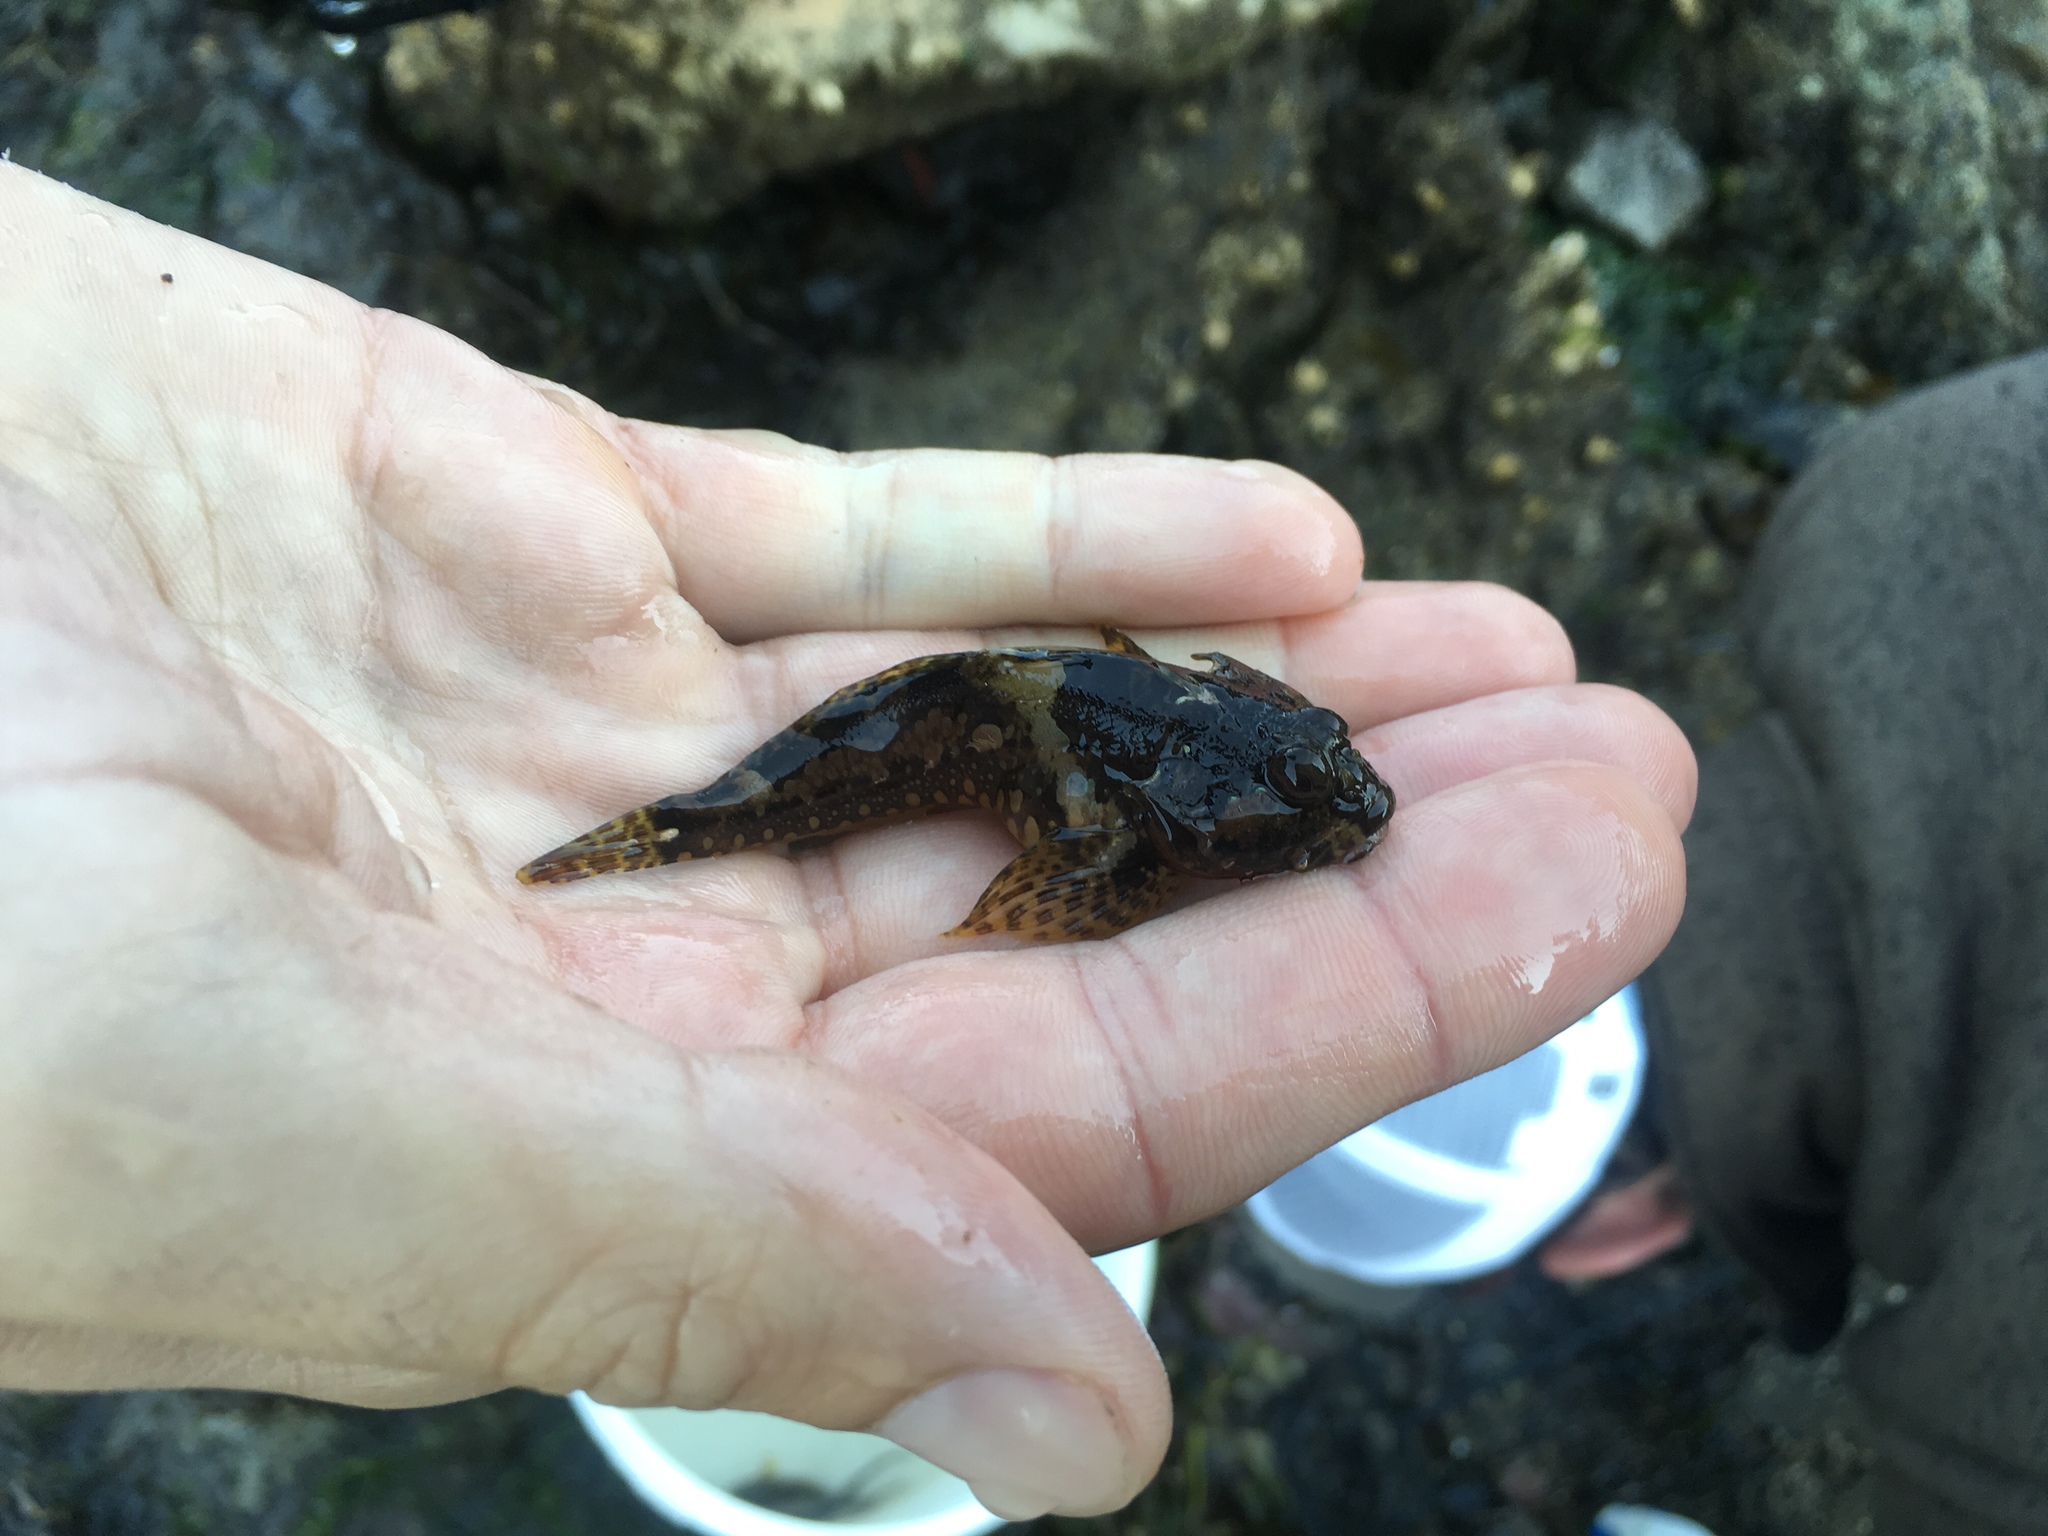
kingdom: Animalia
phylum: Chordata
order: Scorpaeniformes
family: Cottidae
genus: Artedius
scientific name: Artedius harringtoni
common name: Scalyhead sculpin
